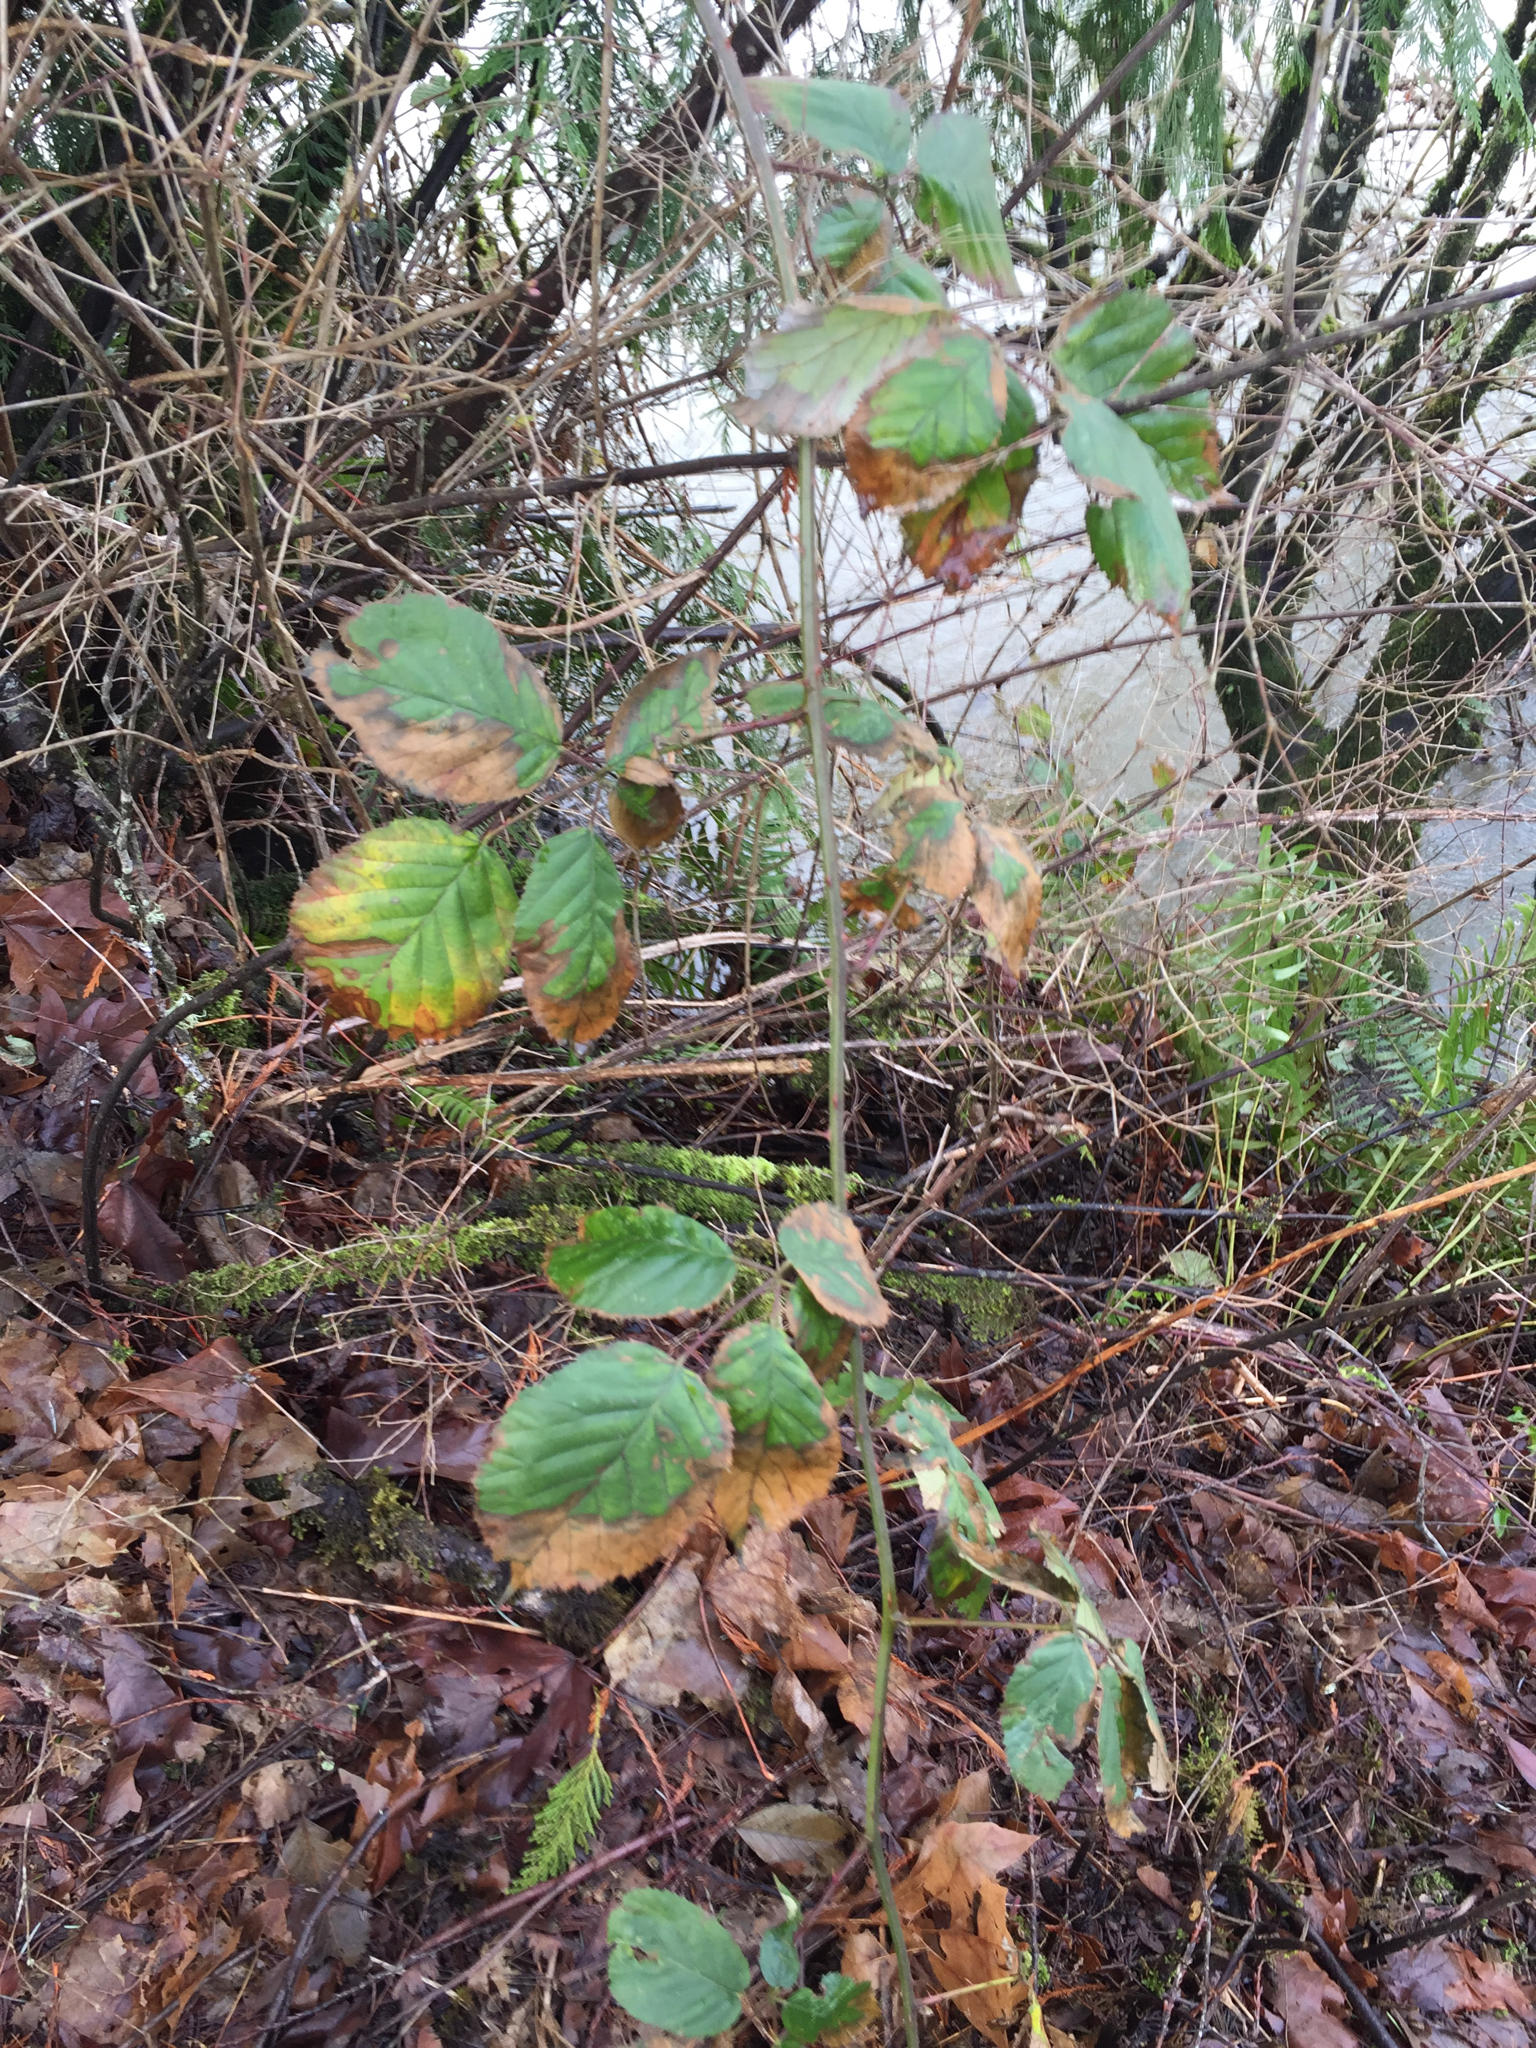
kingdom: Plantae
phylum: Tracheophyta
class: Magnoliopsida
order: Rosales
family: Rosaceae
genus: Rubus
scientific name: Rubus bifrons
